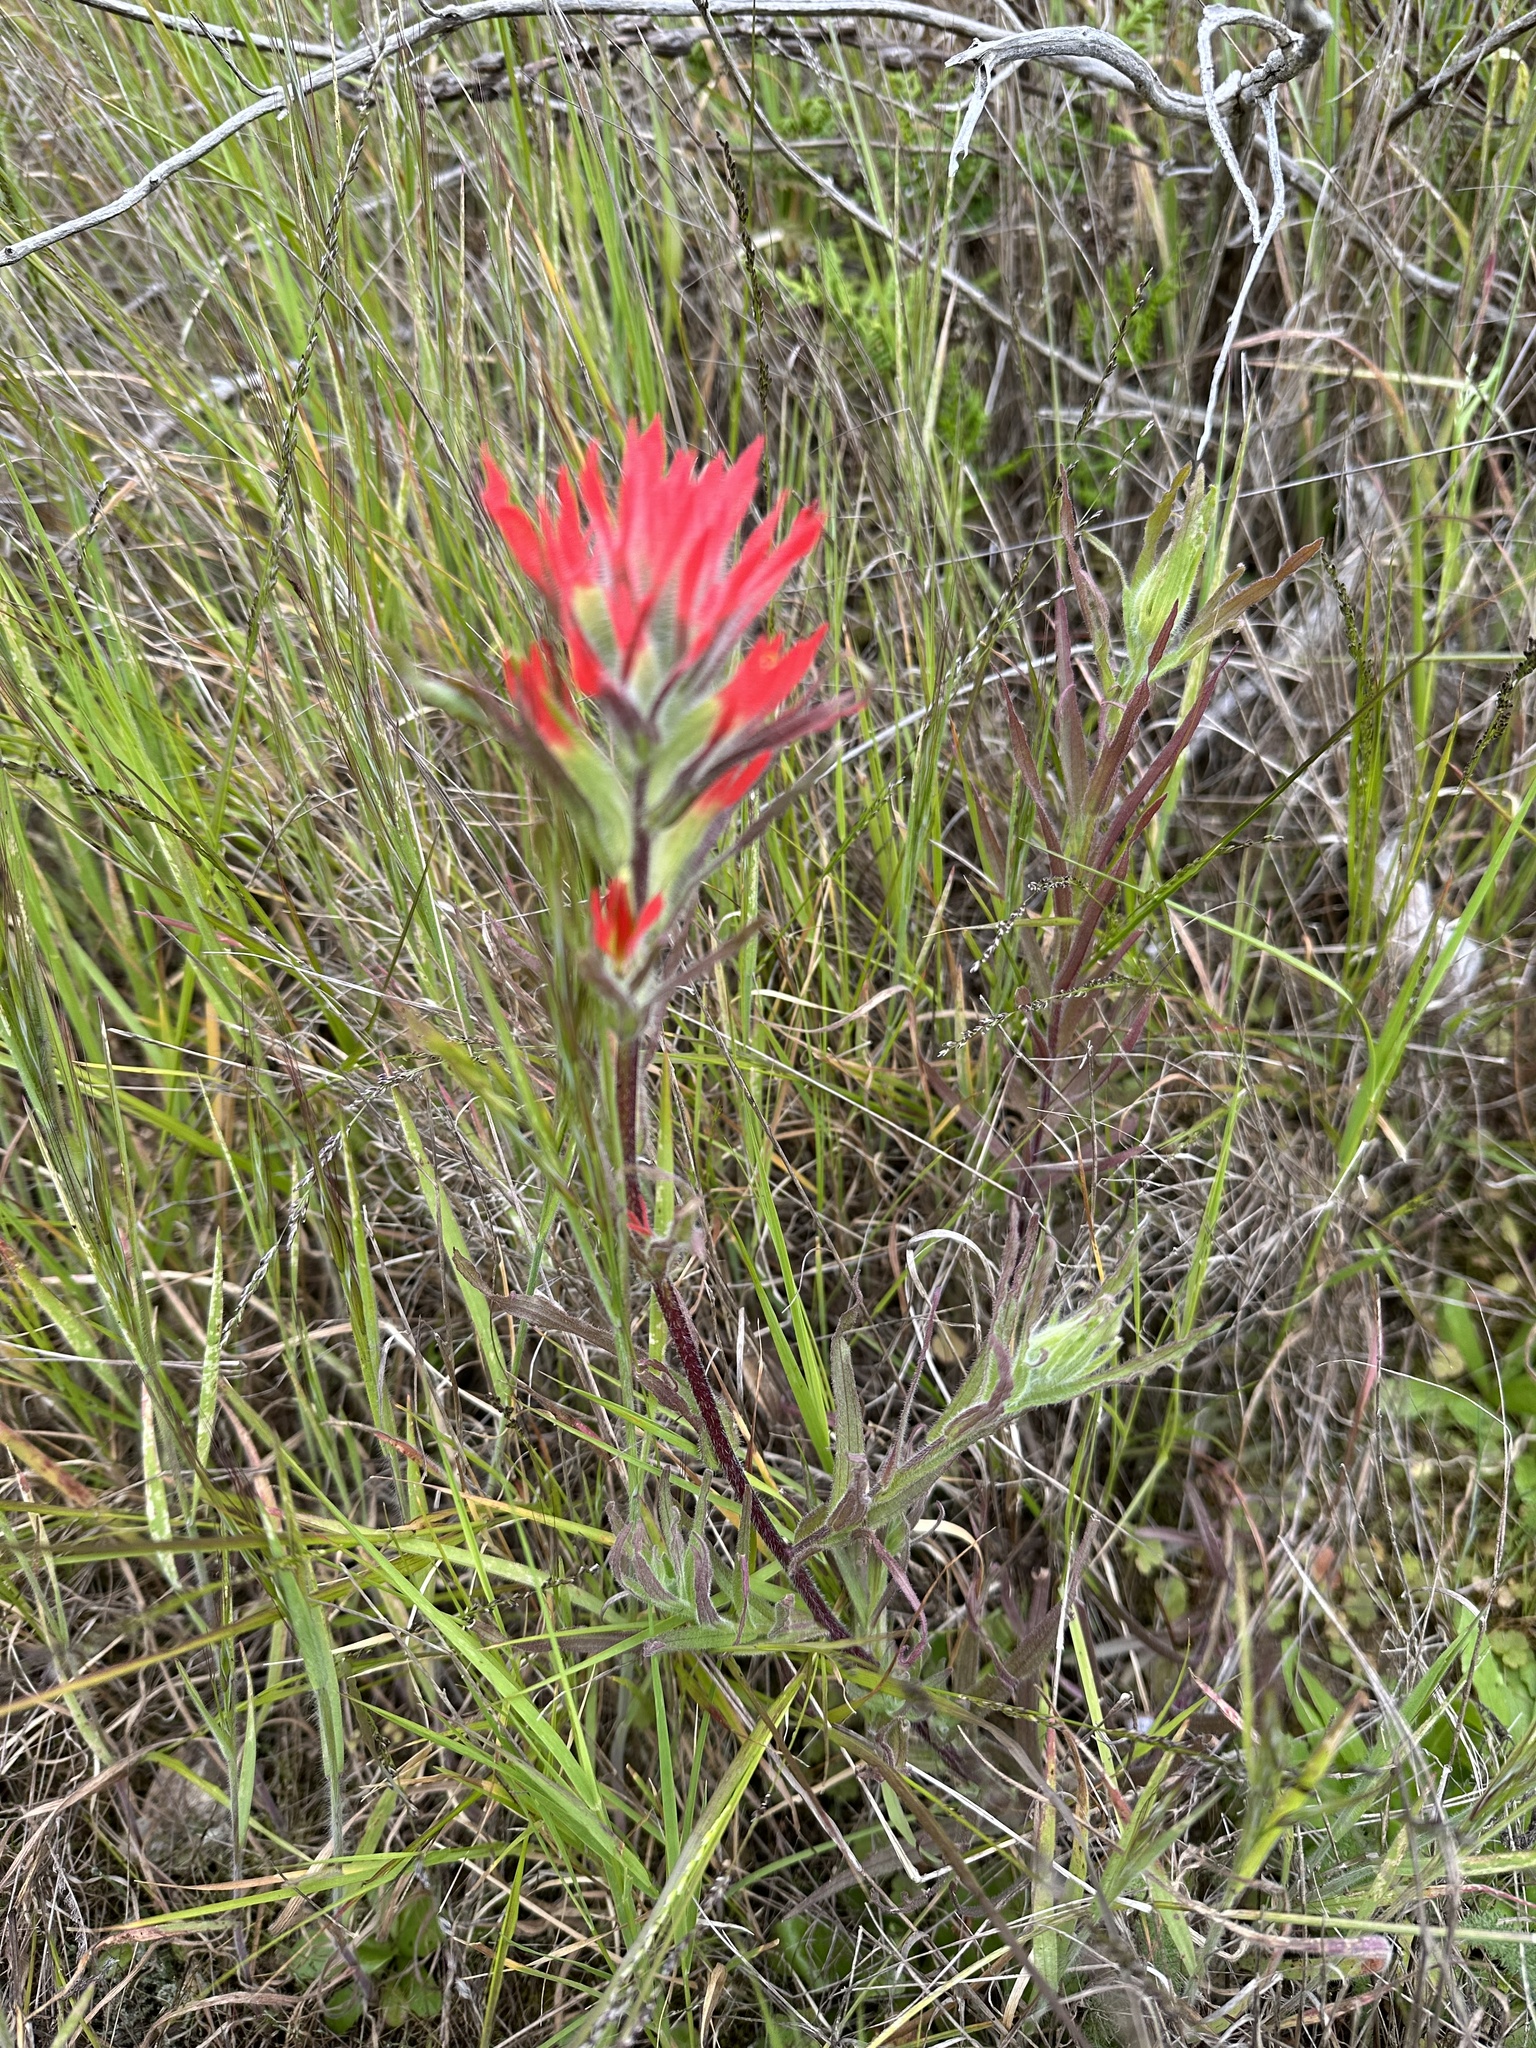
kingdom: Plantae
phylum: Tracheophyta
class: Magnoliopsida
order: Lamiales
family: Orobanchaceae
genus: Castilleja
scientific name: Castilleja affinis
